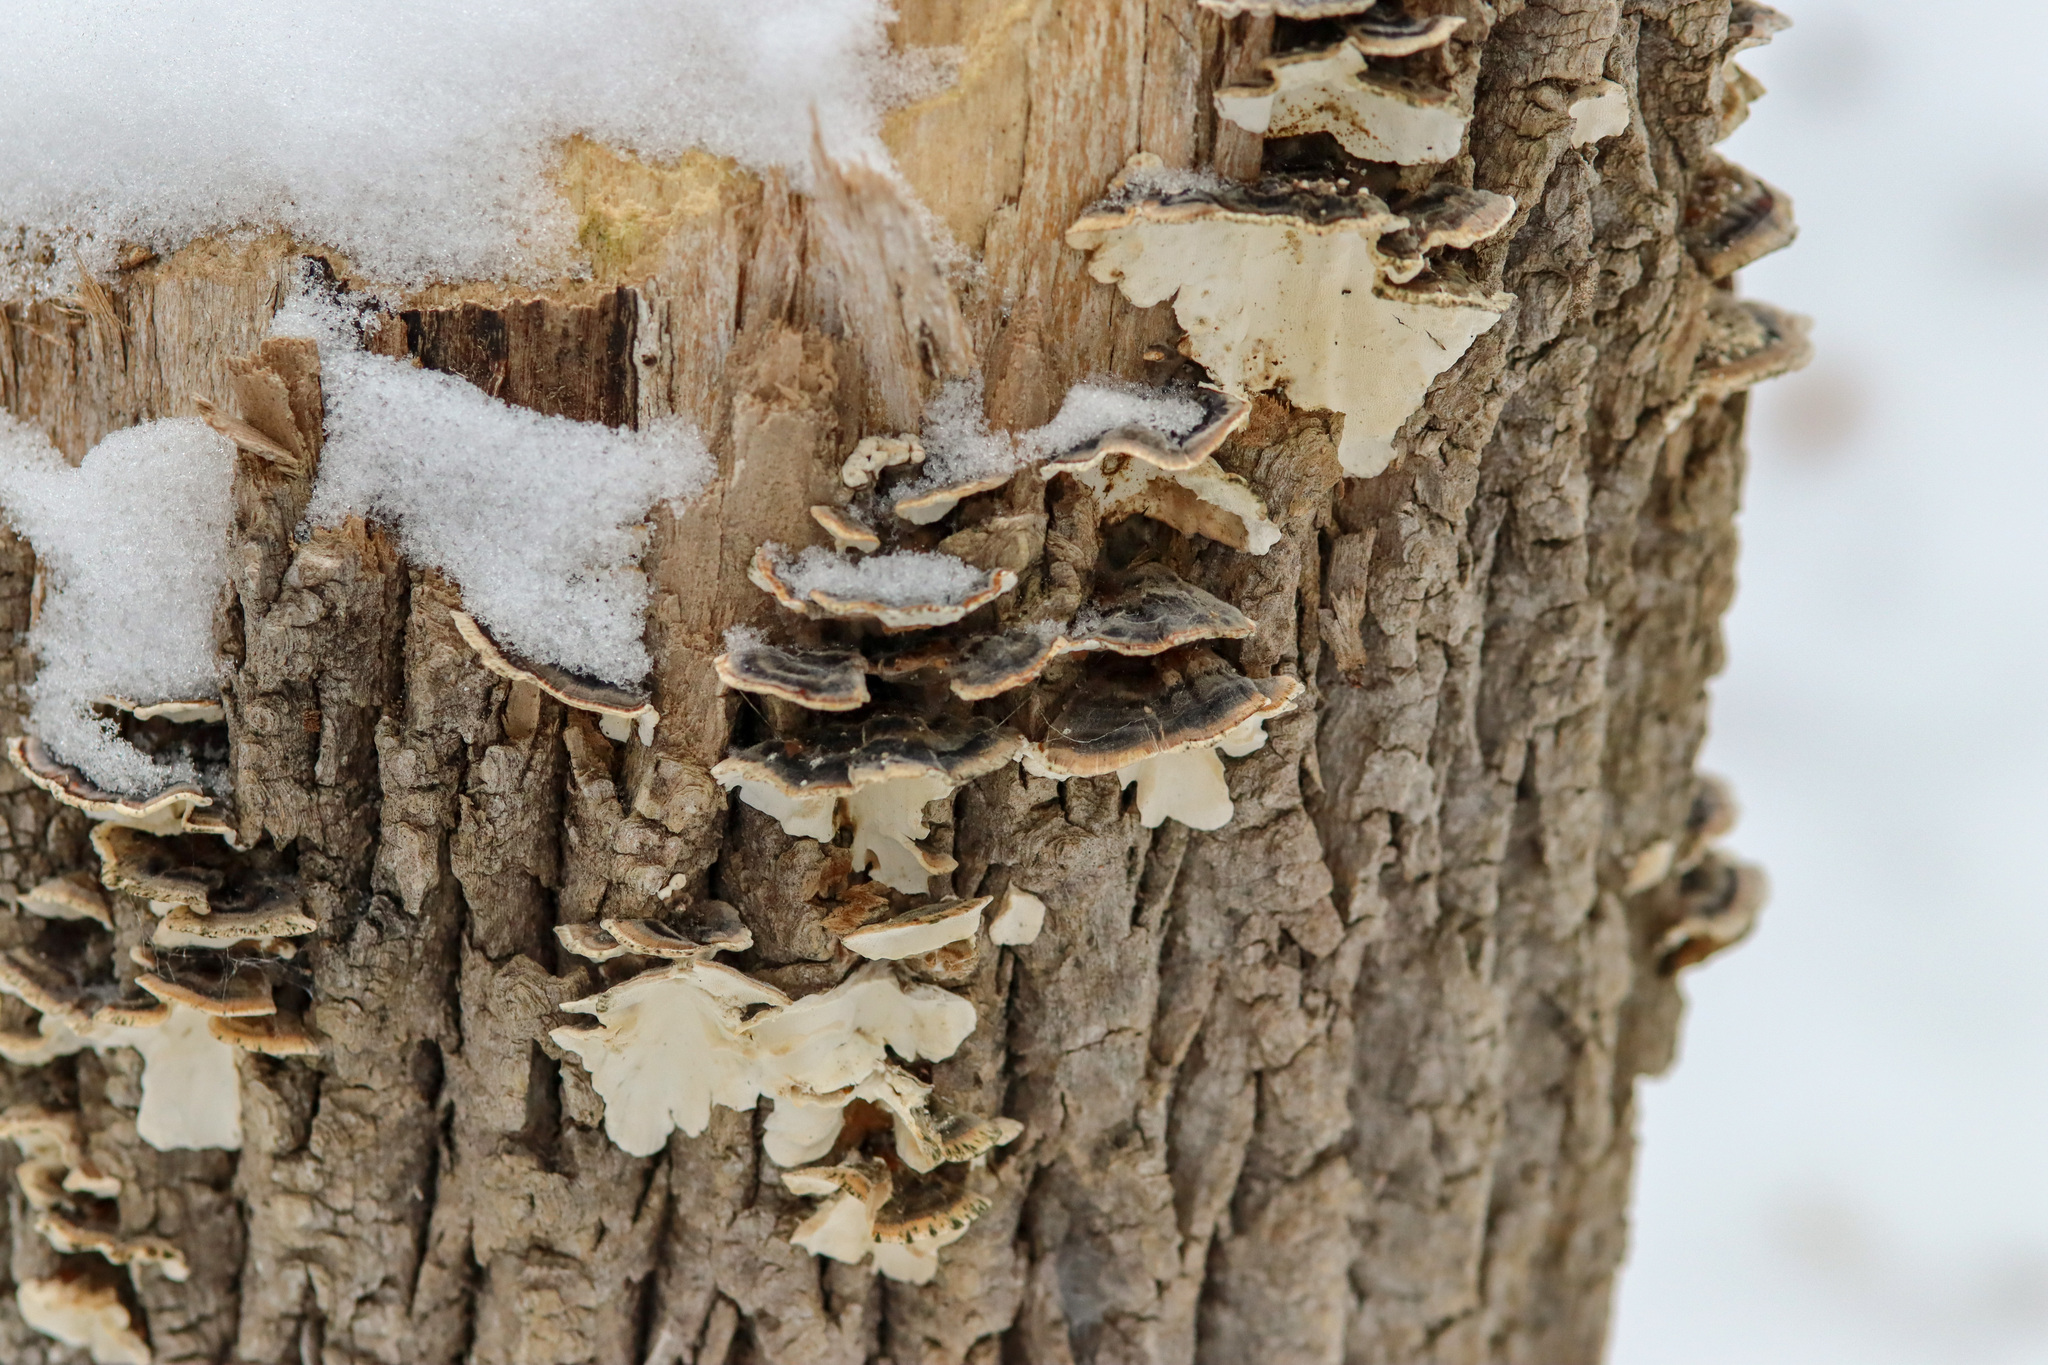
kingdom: Fungi
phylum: Basidiomycota
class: Agaricomycetes
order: Polyporales
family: Polyporaceae
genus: Trametes
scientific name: Trametes versicolor
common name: Turkeytail
